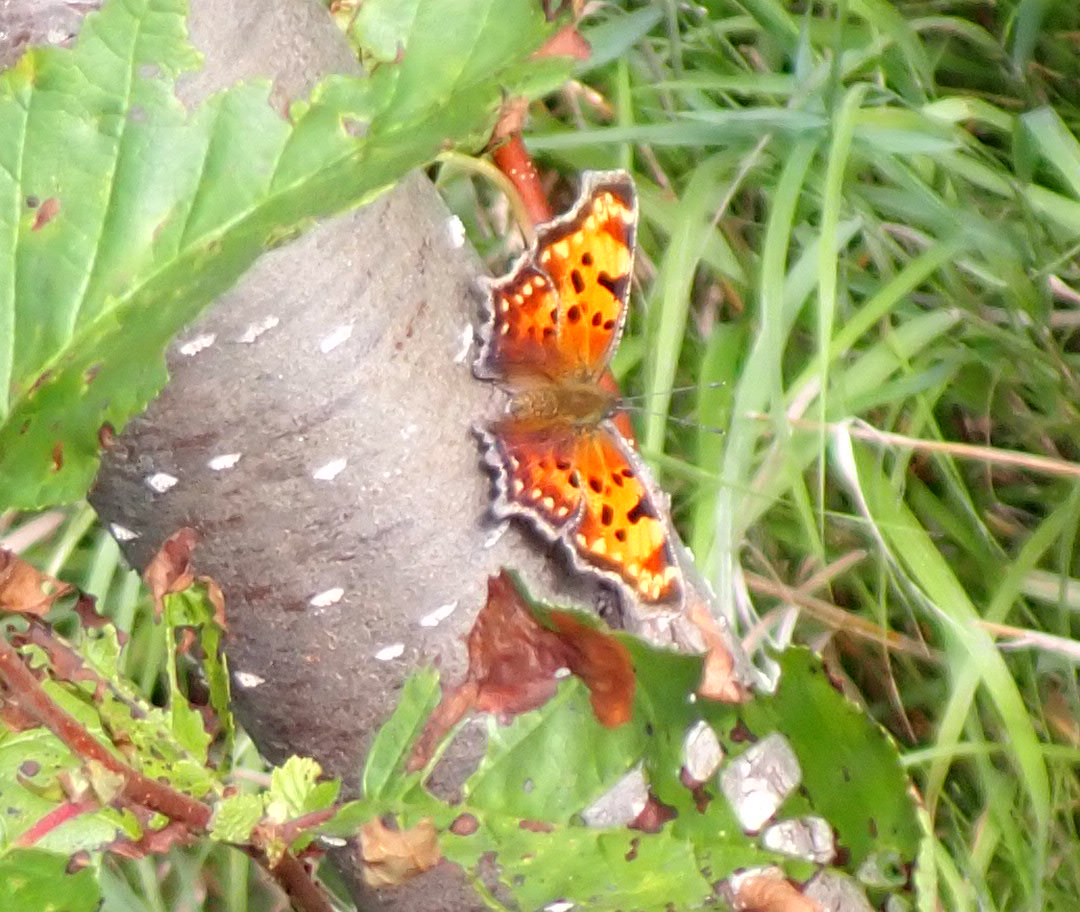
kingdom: Animalia
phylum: Arthropoda
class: Insecta
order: Lepidoptera
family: Nymphalidae
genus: Polygonia
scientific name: Polygonia faunus
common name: Green comma
